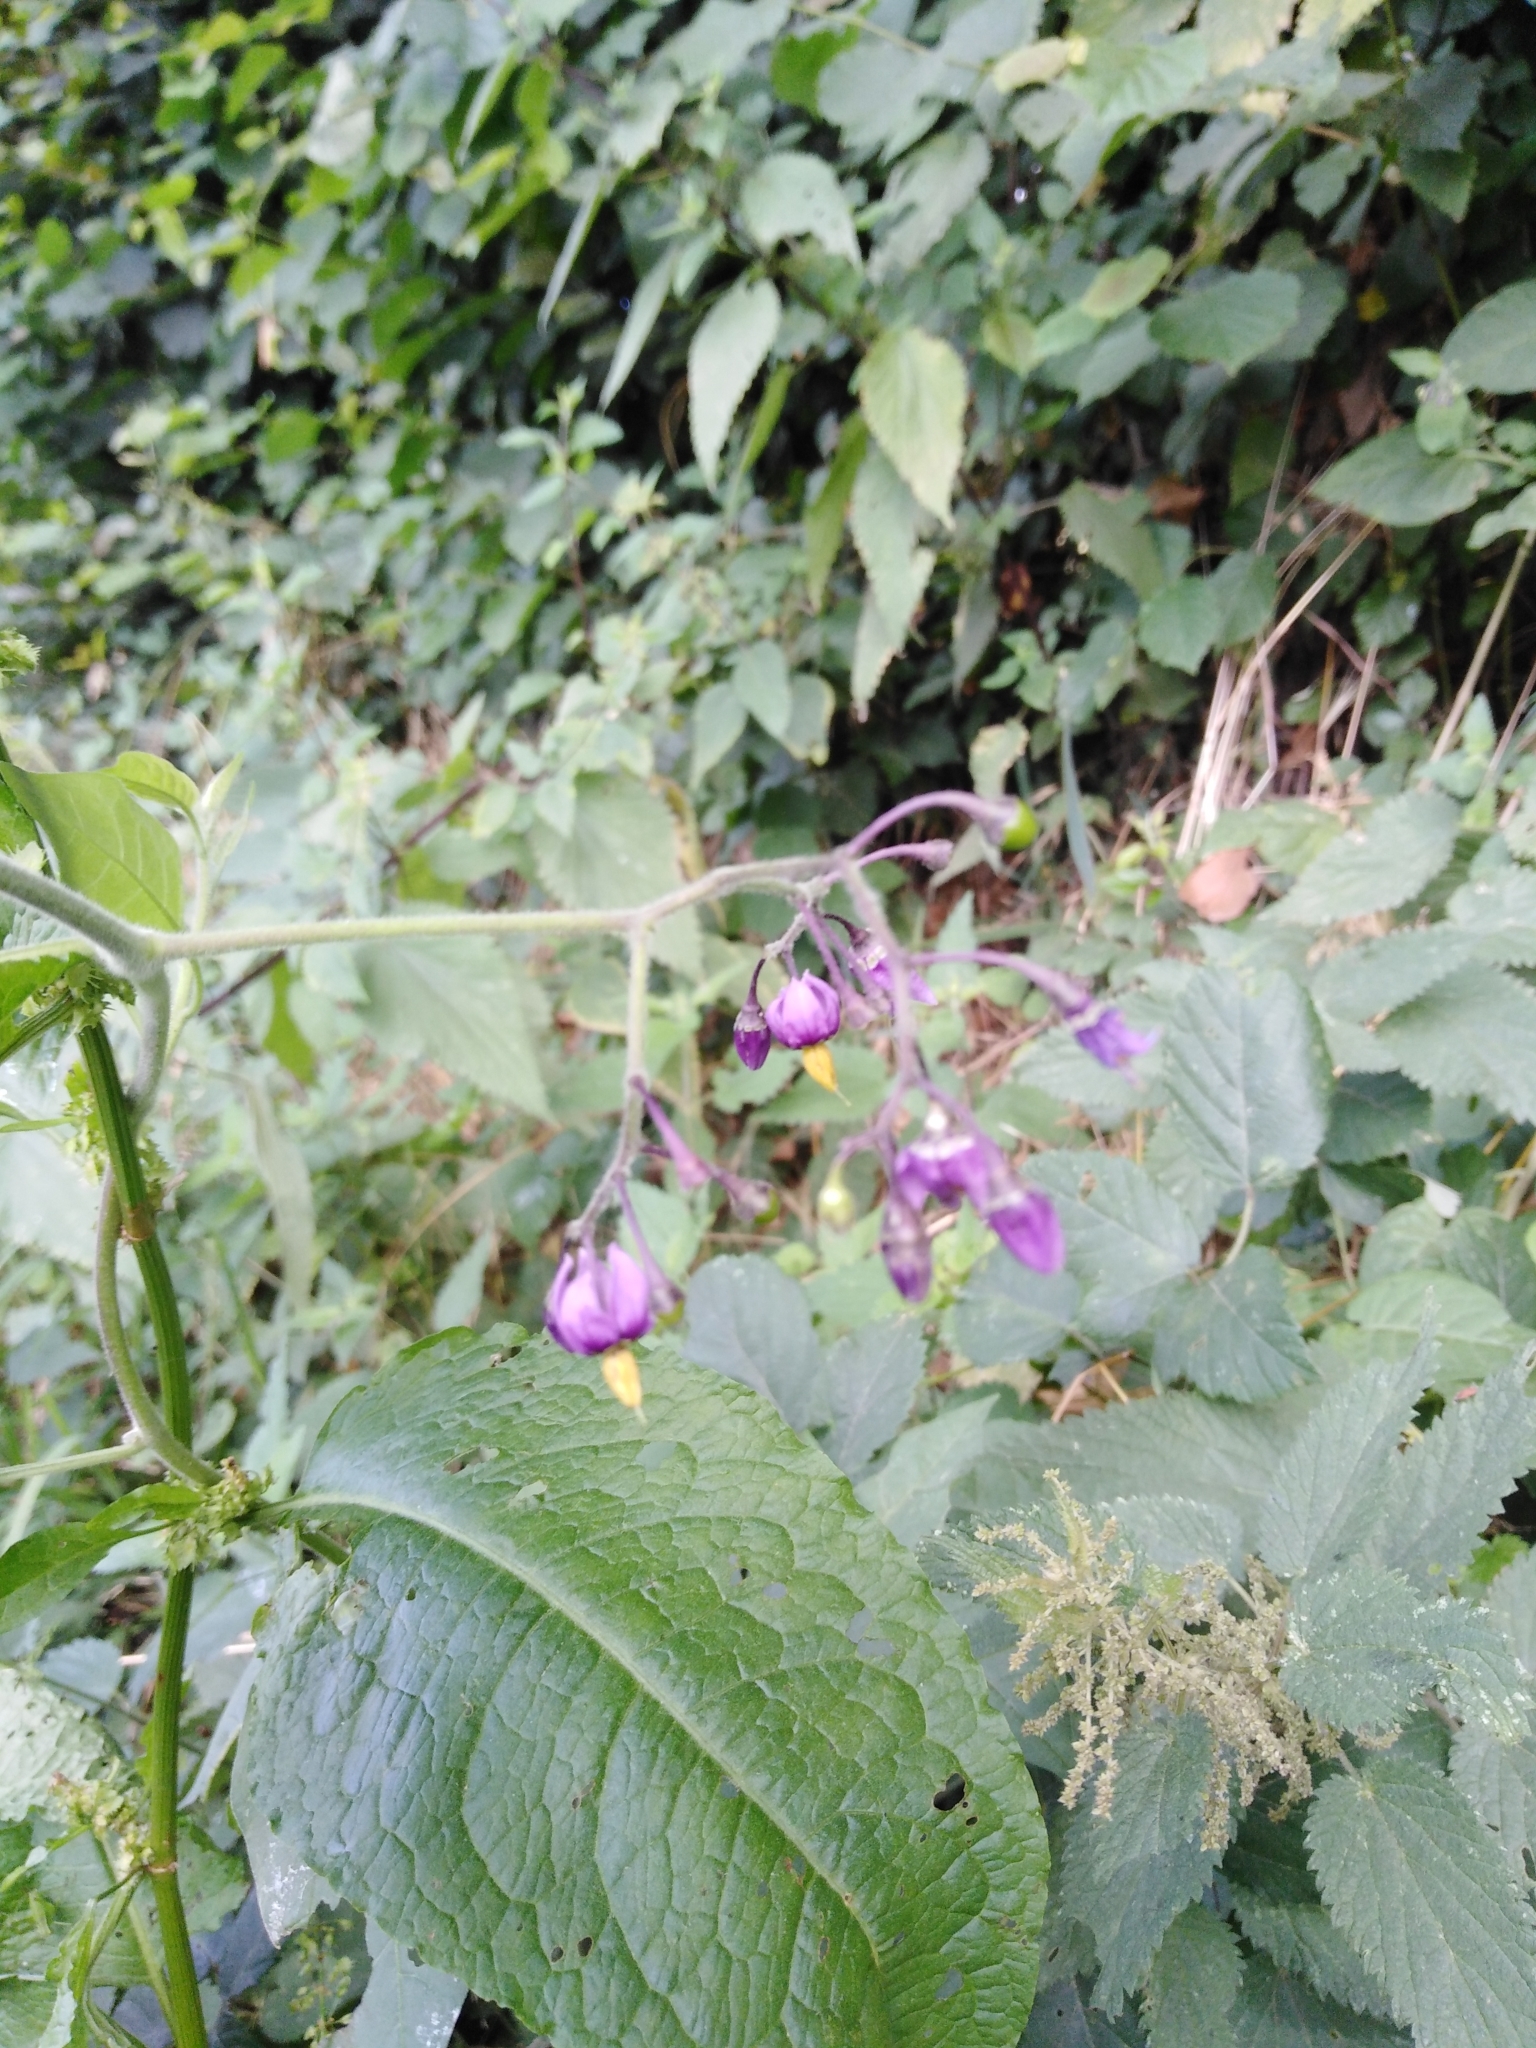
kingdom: Plantae
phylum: Tracheophyta
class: Magnoliopsida
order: Solanales
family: Solanaceae
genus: Solanum
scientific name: Solanum dulcamara
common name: Climbing nightshade
